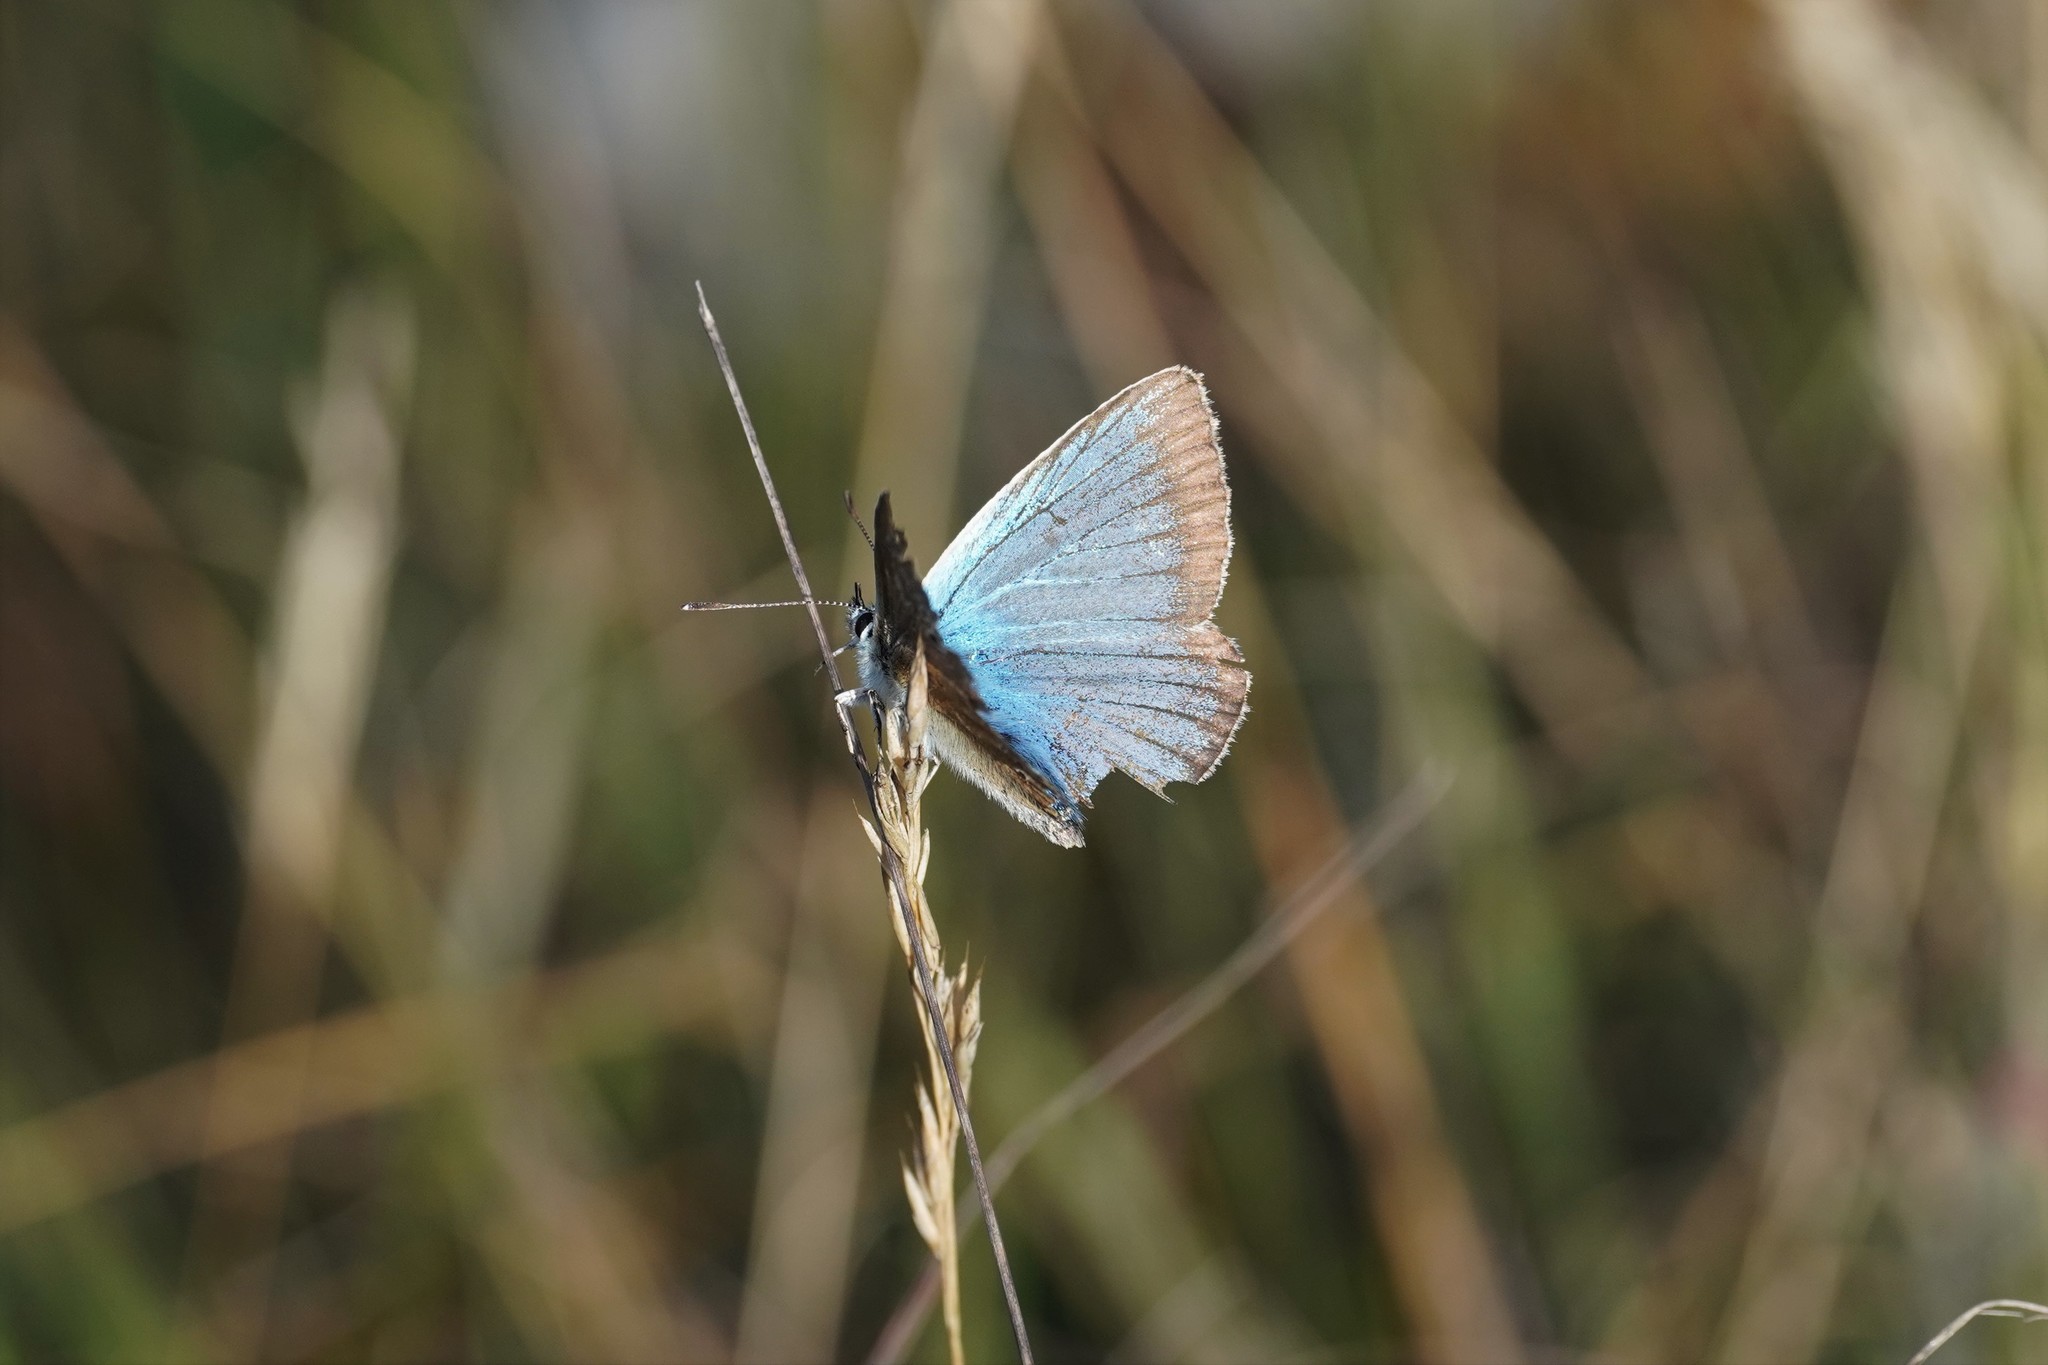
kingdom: Animalia
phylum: Arthropoda
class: Insecta
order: Lepidoptera
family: Lycaenidae
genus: Agrodiaetus
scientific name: Agrodiaetus damon
